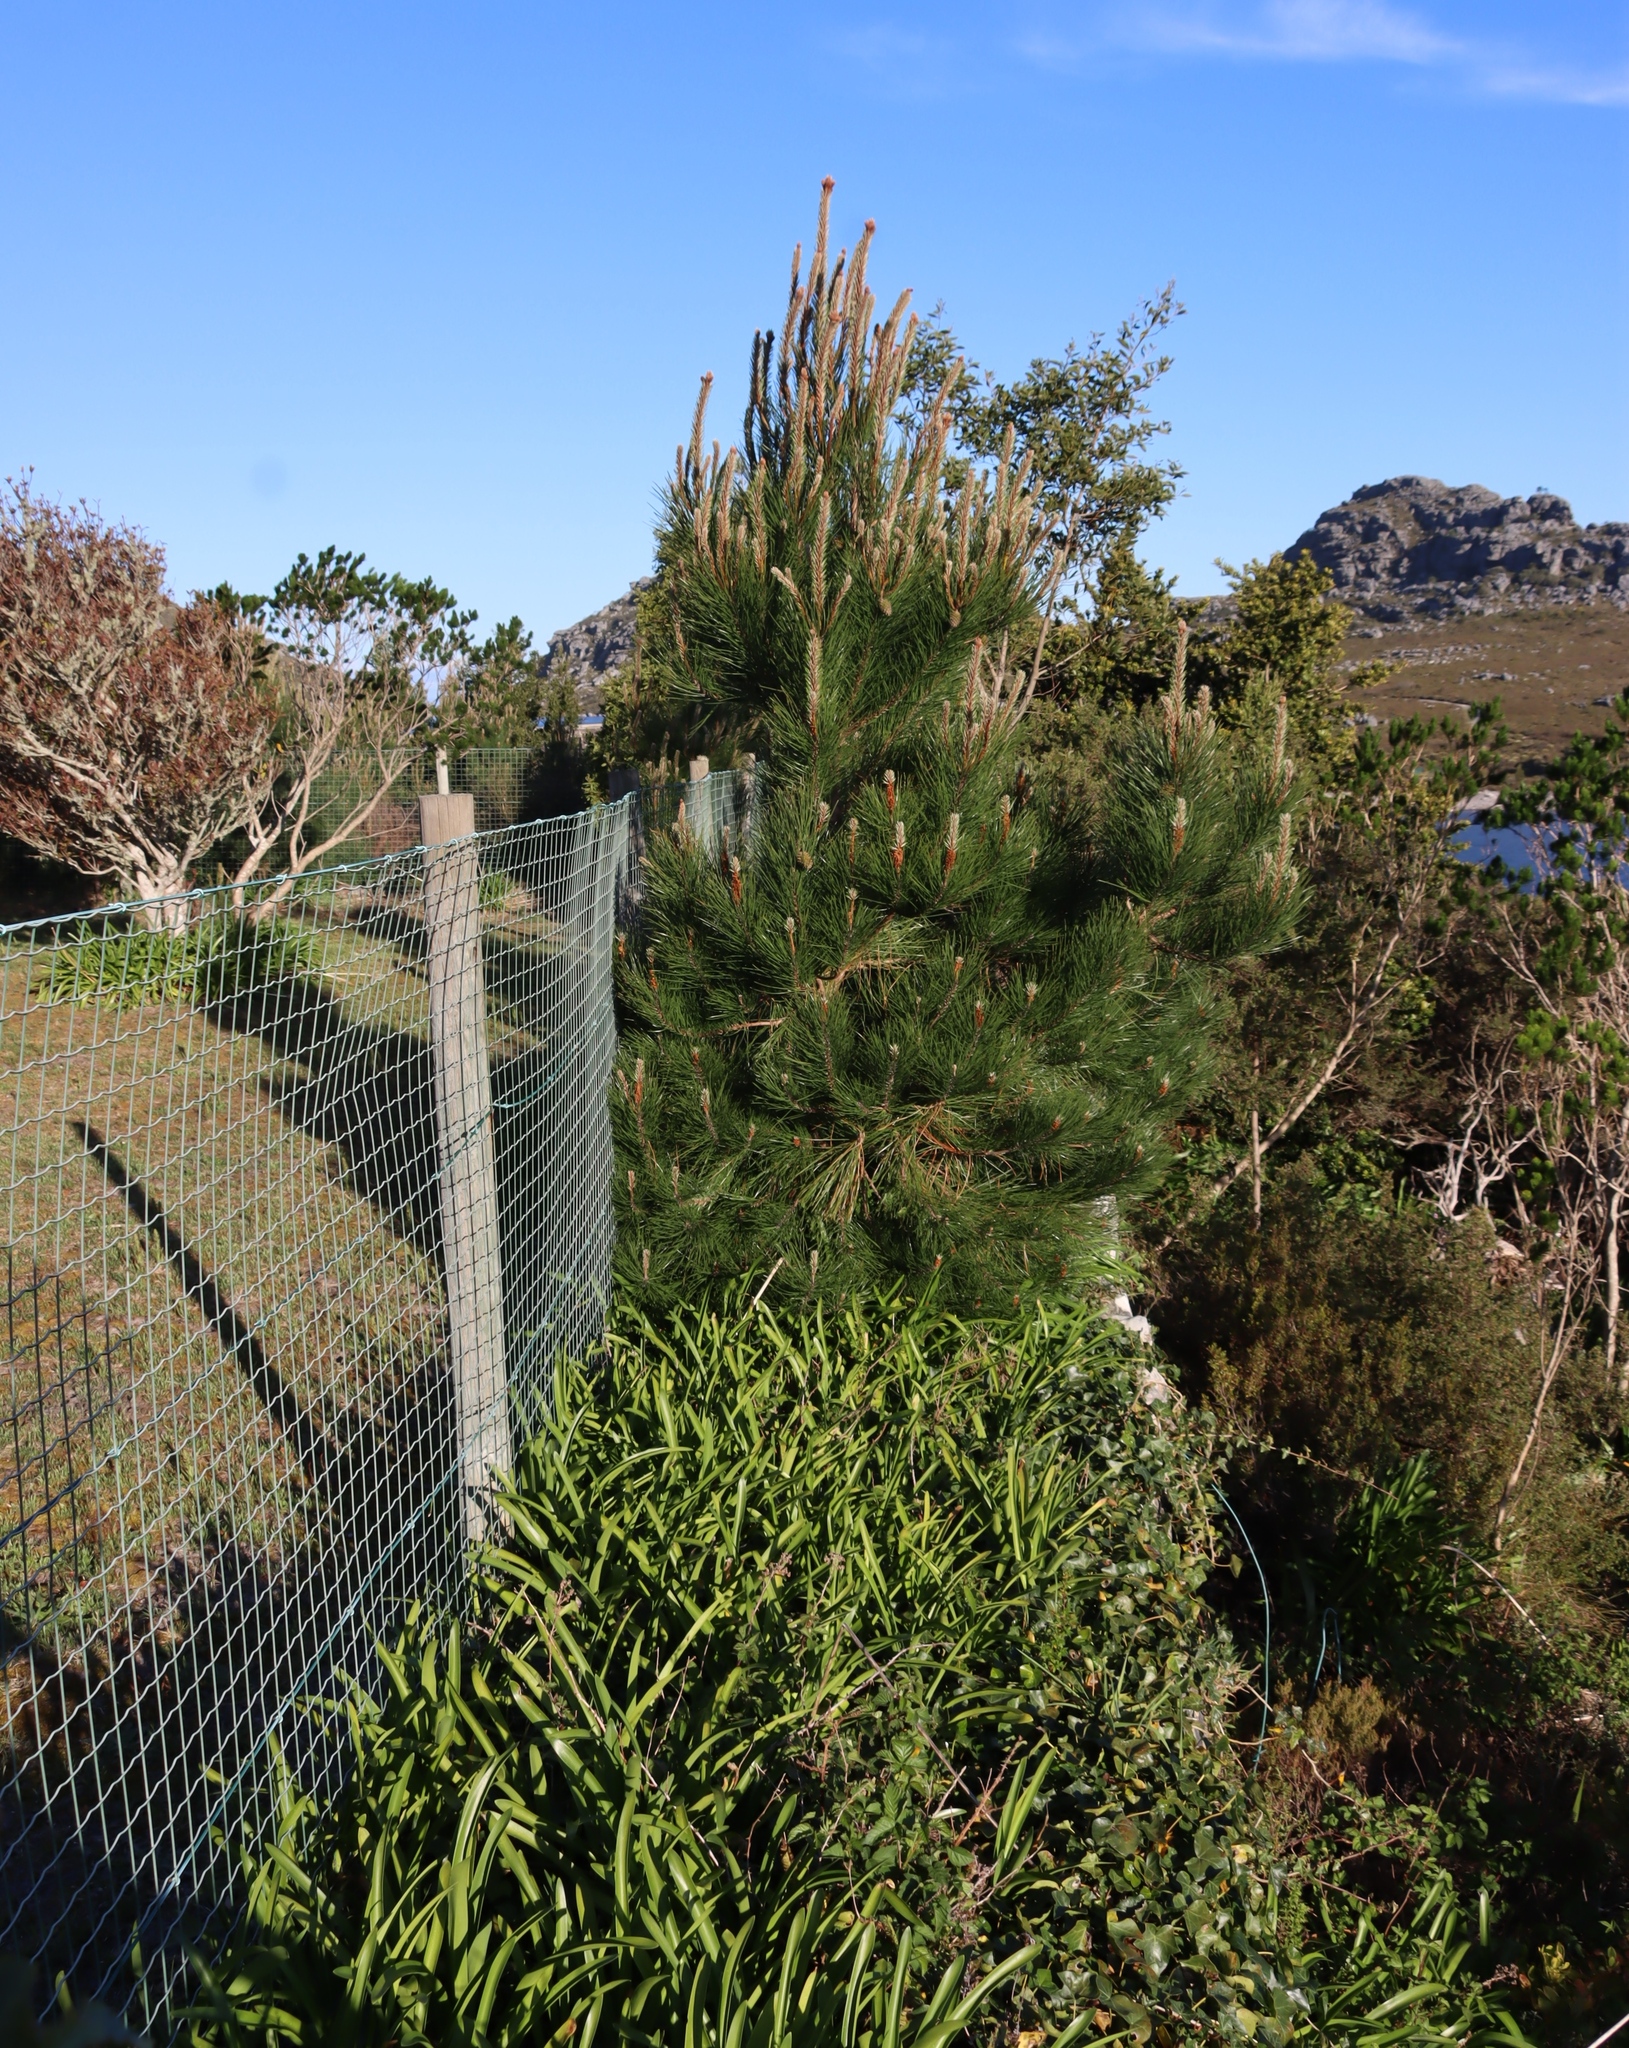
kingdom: Plantae
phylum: Tracheophyta
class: Pinopsida
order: Pinales
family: Pinaceae
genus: Pinus
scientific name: Pinus pinaster
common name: Maritime pine
